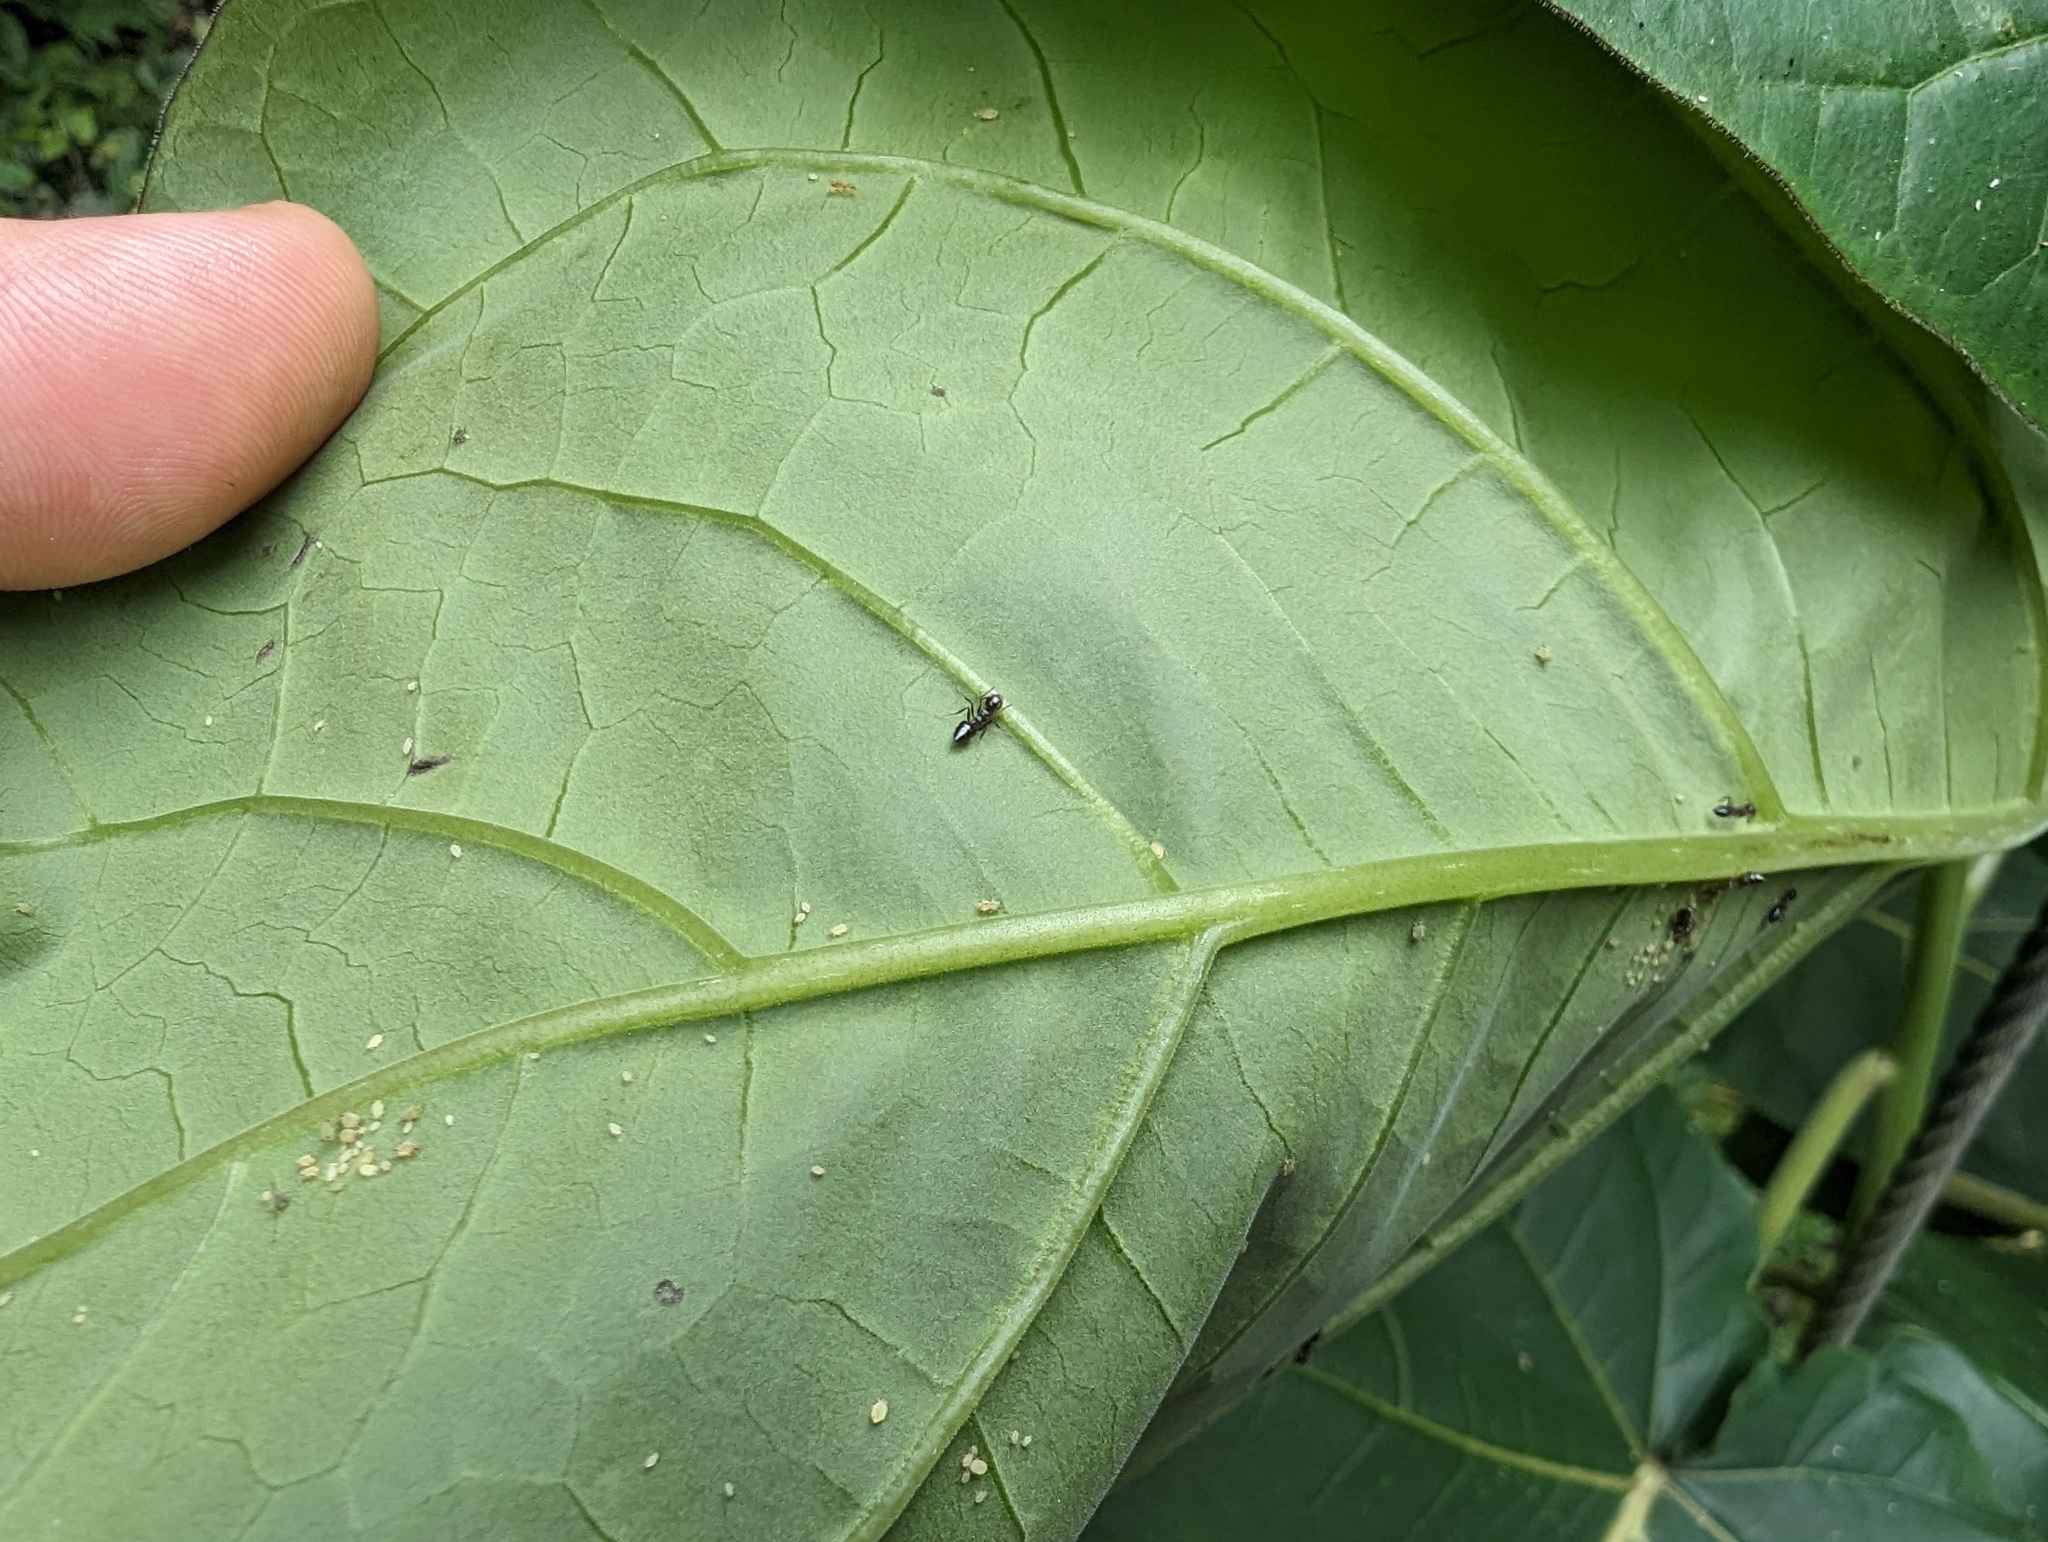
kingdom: Plantae
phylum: Tracheophyta
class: Magnoliopsida
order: Solanales
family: Solanaceae
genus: Solanum
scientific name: Solanum betaceum
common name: Tamarillo
